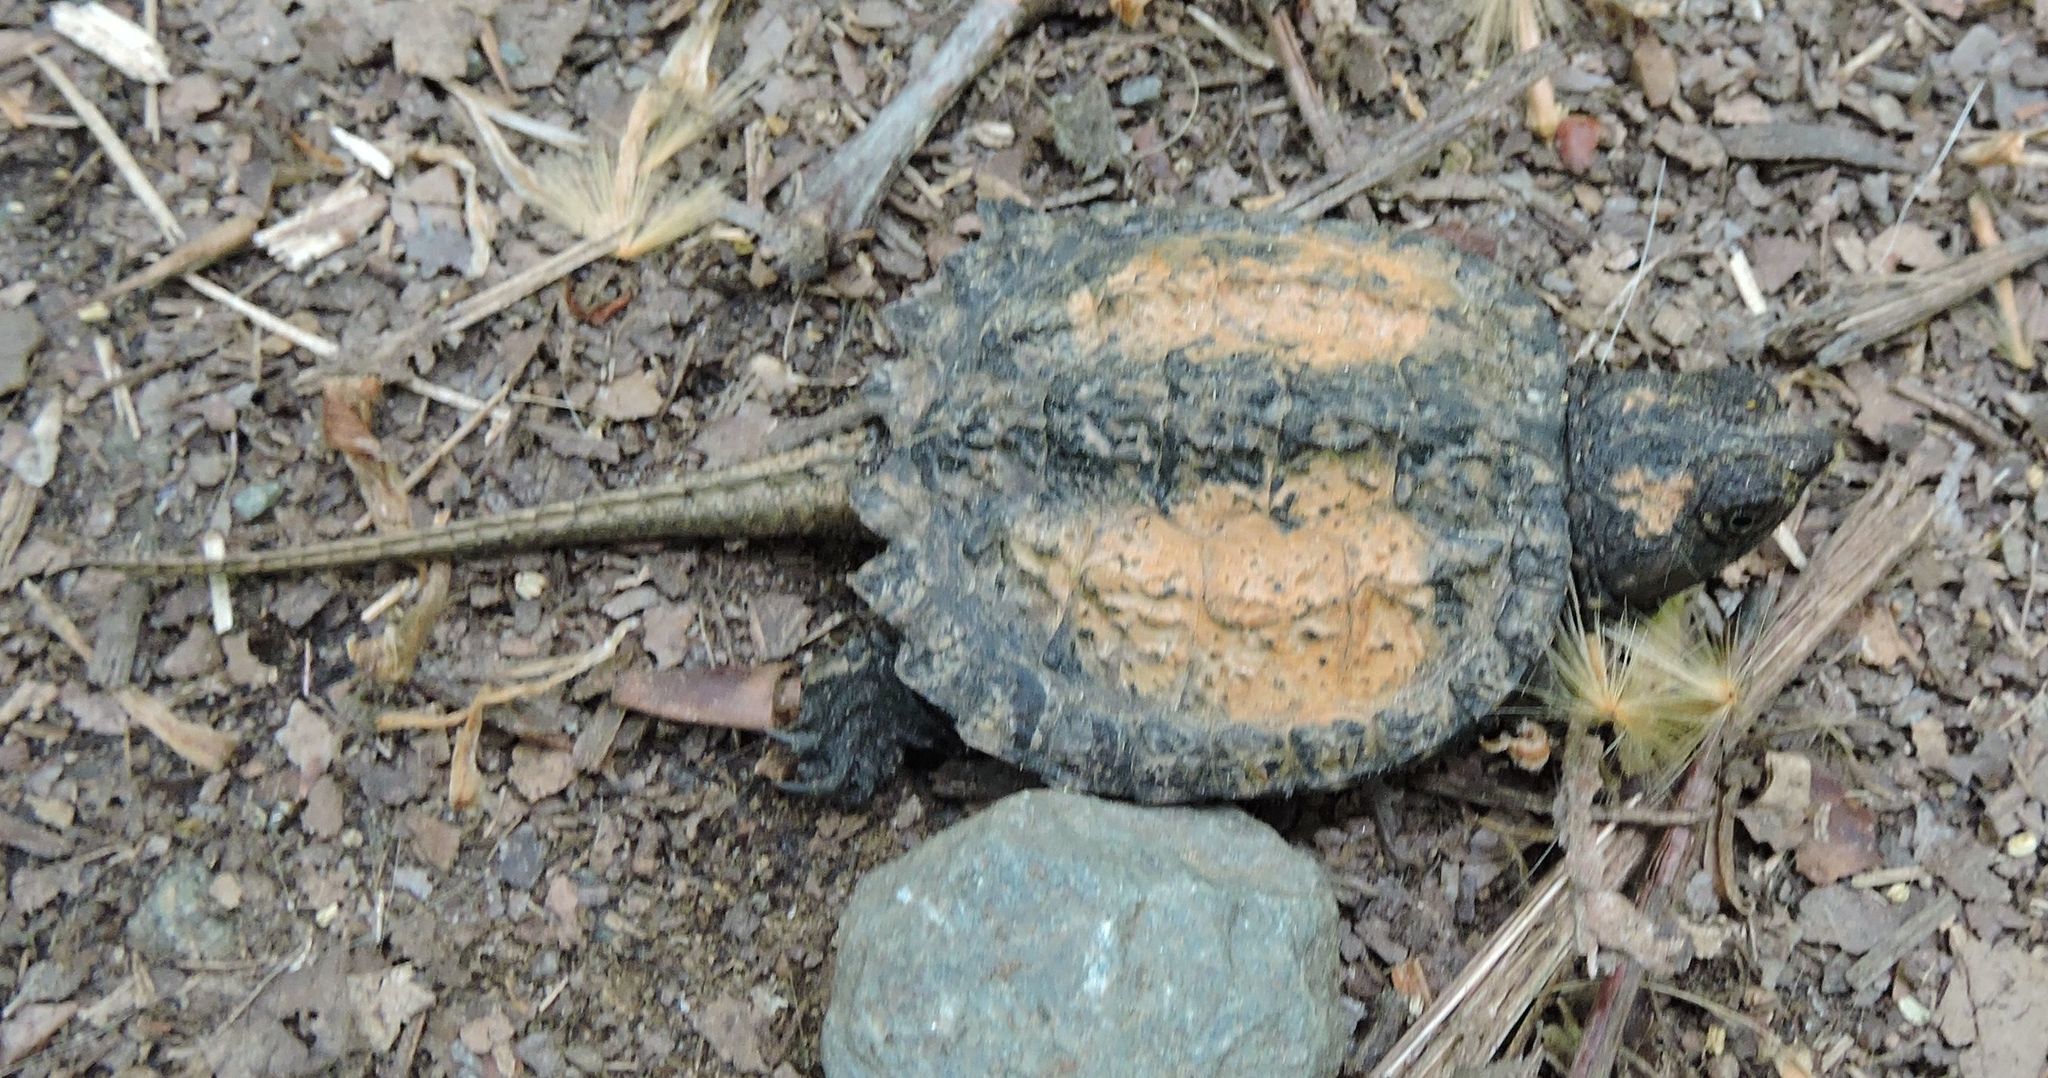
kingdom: Animalia
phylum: Chordata
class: Testudines
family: Chelydridae
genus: Chelydra
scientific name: Chelydra serpentina
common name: Common snapping turtle
